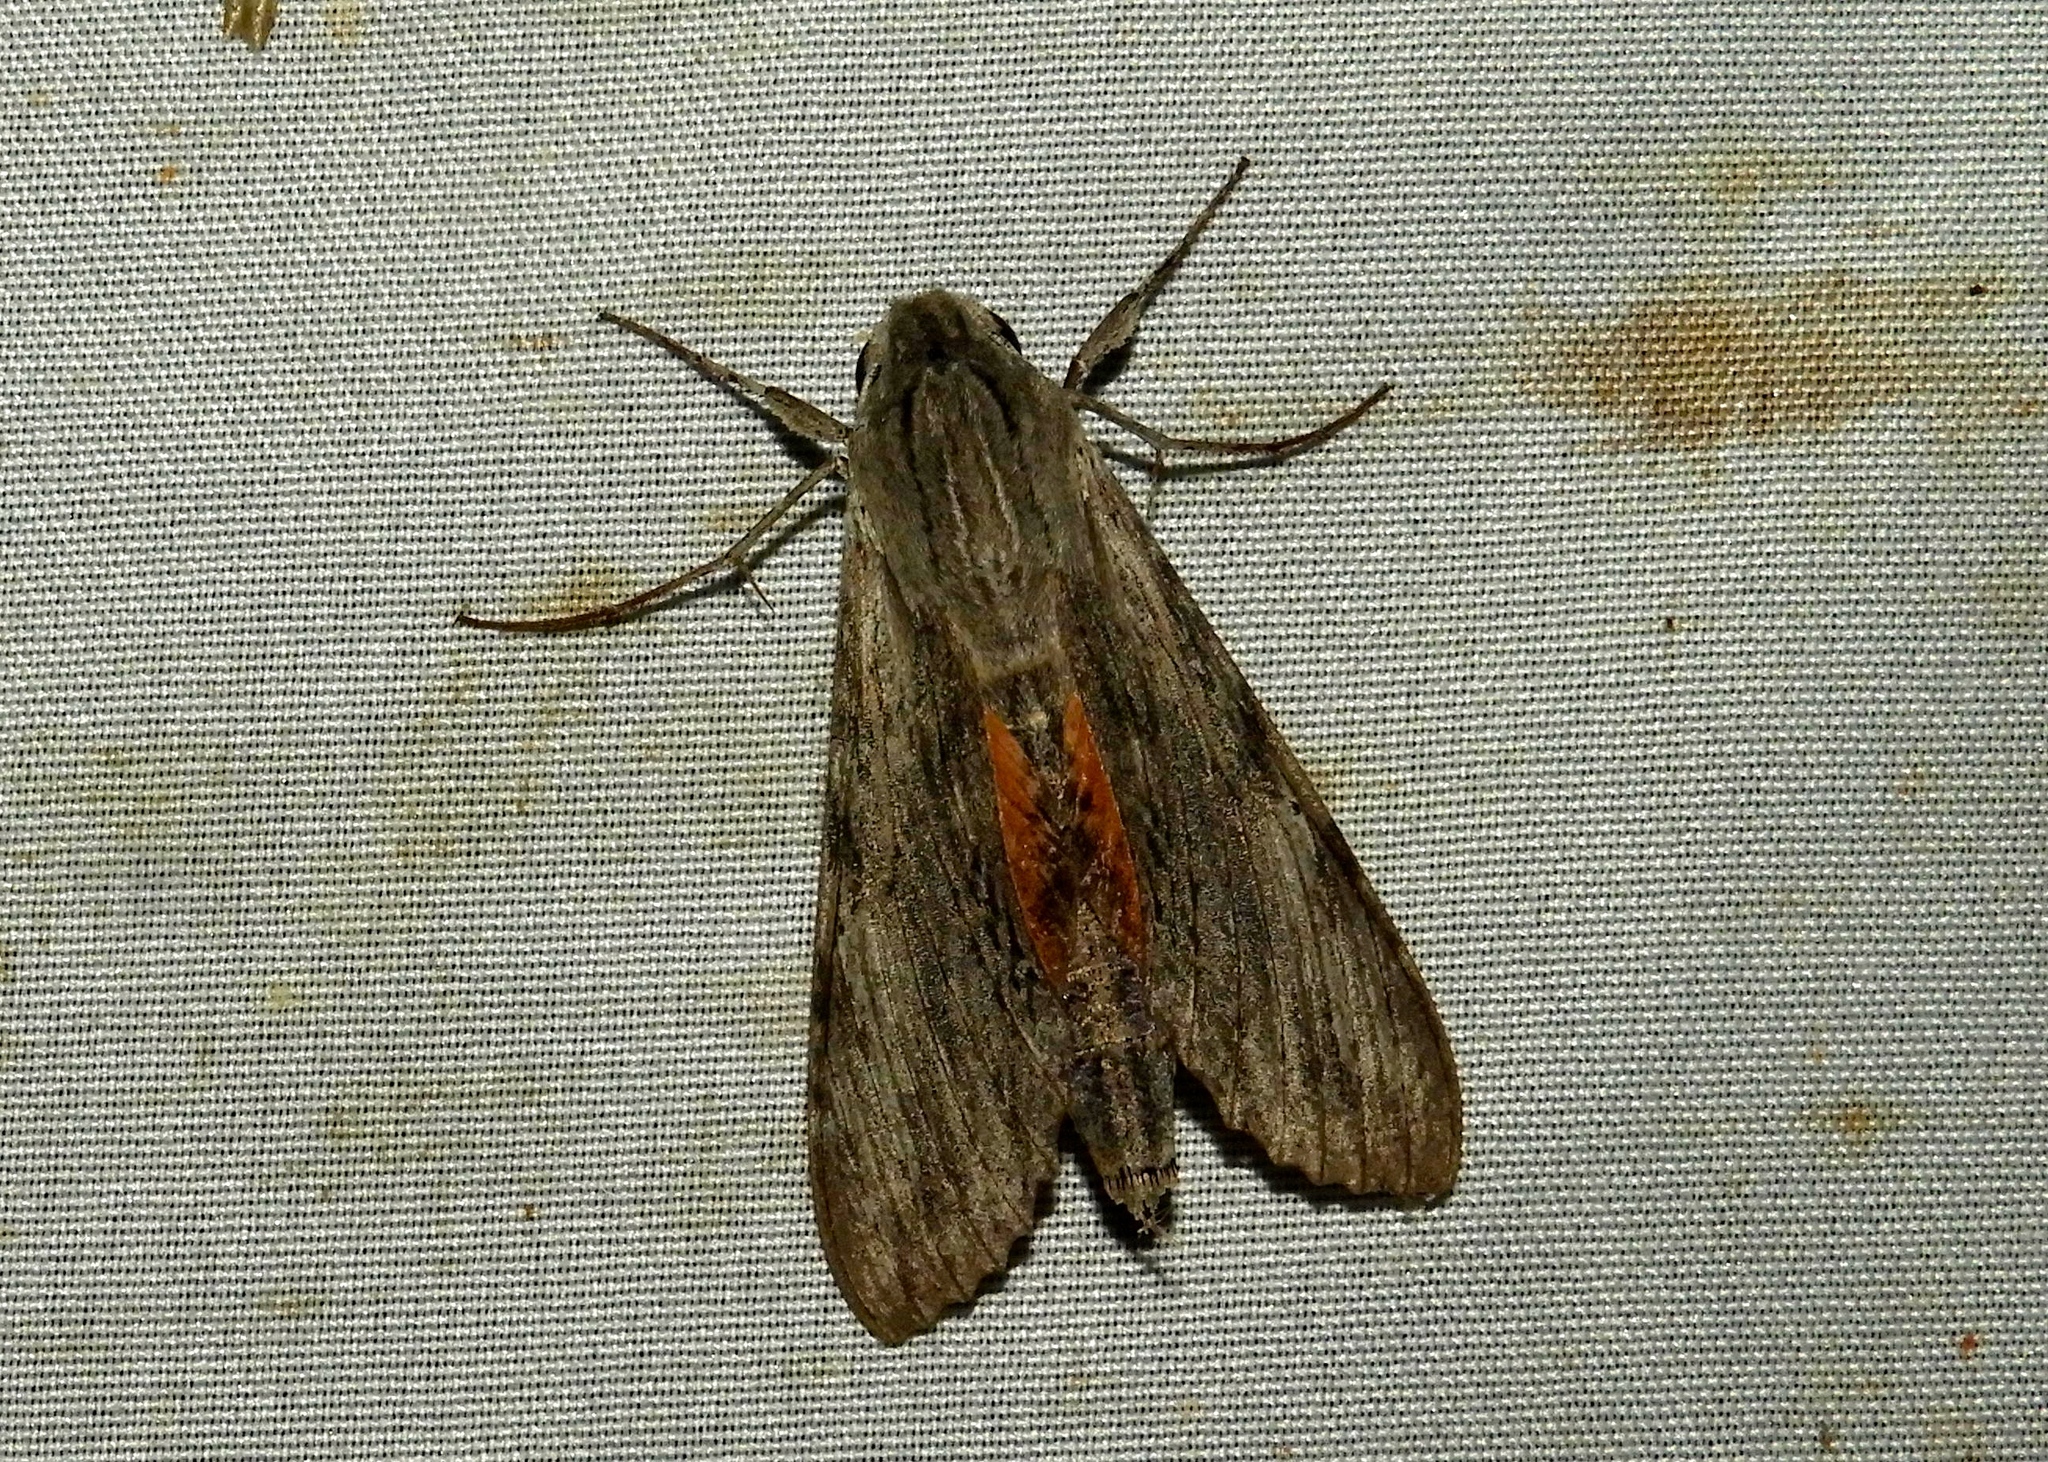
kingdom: Animalia
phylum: Arthropoda
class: Insecta
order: Lepidoptera
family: Sphingidae
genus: Erinnyis
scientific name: Erinnyis ello
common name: Ello sphinx
